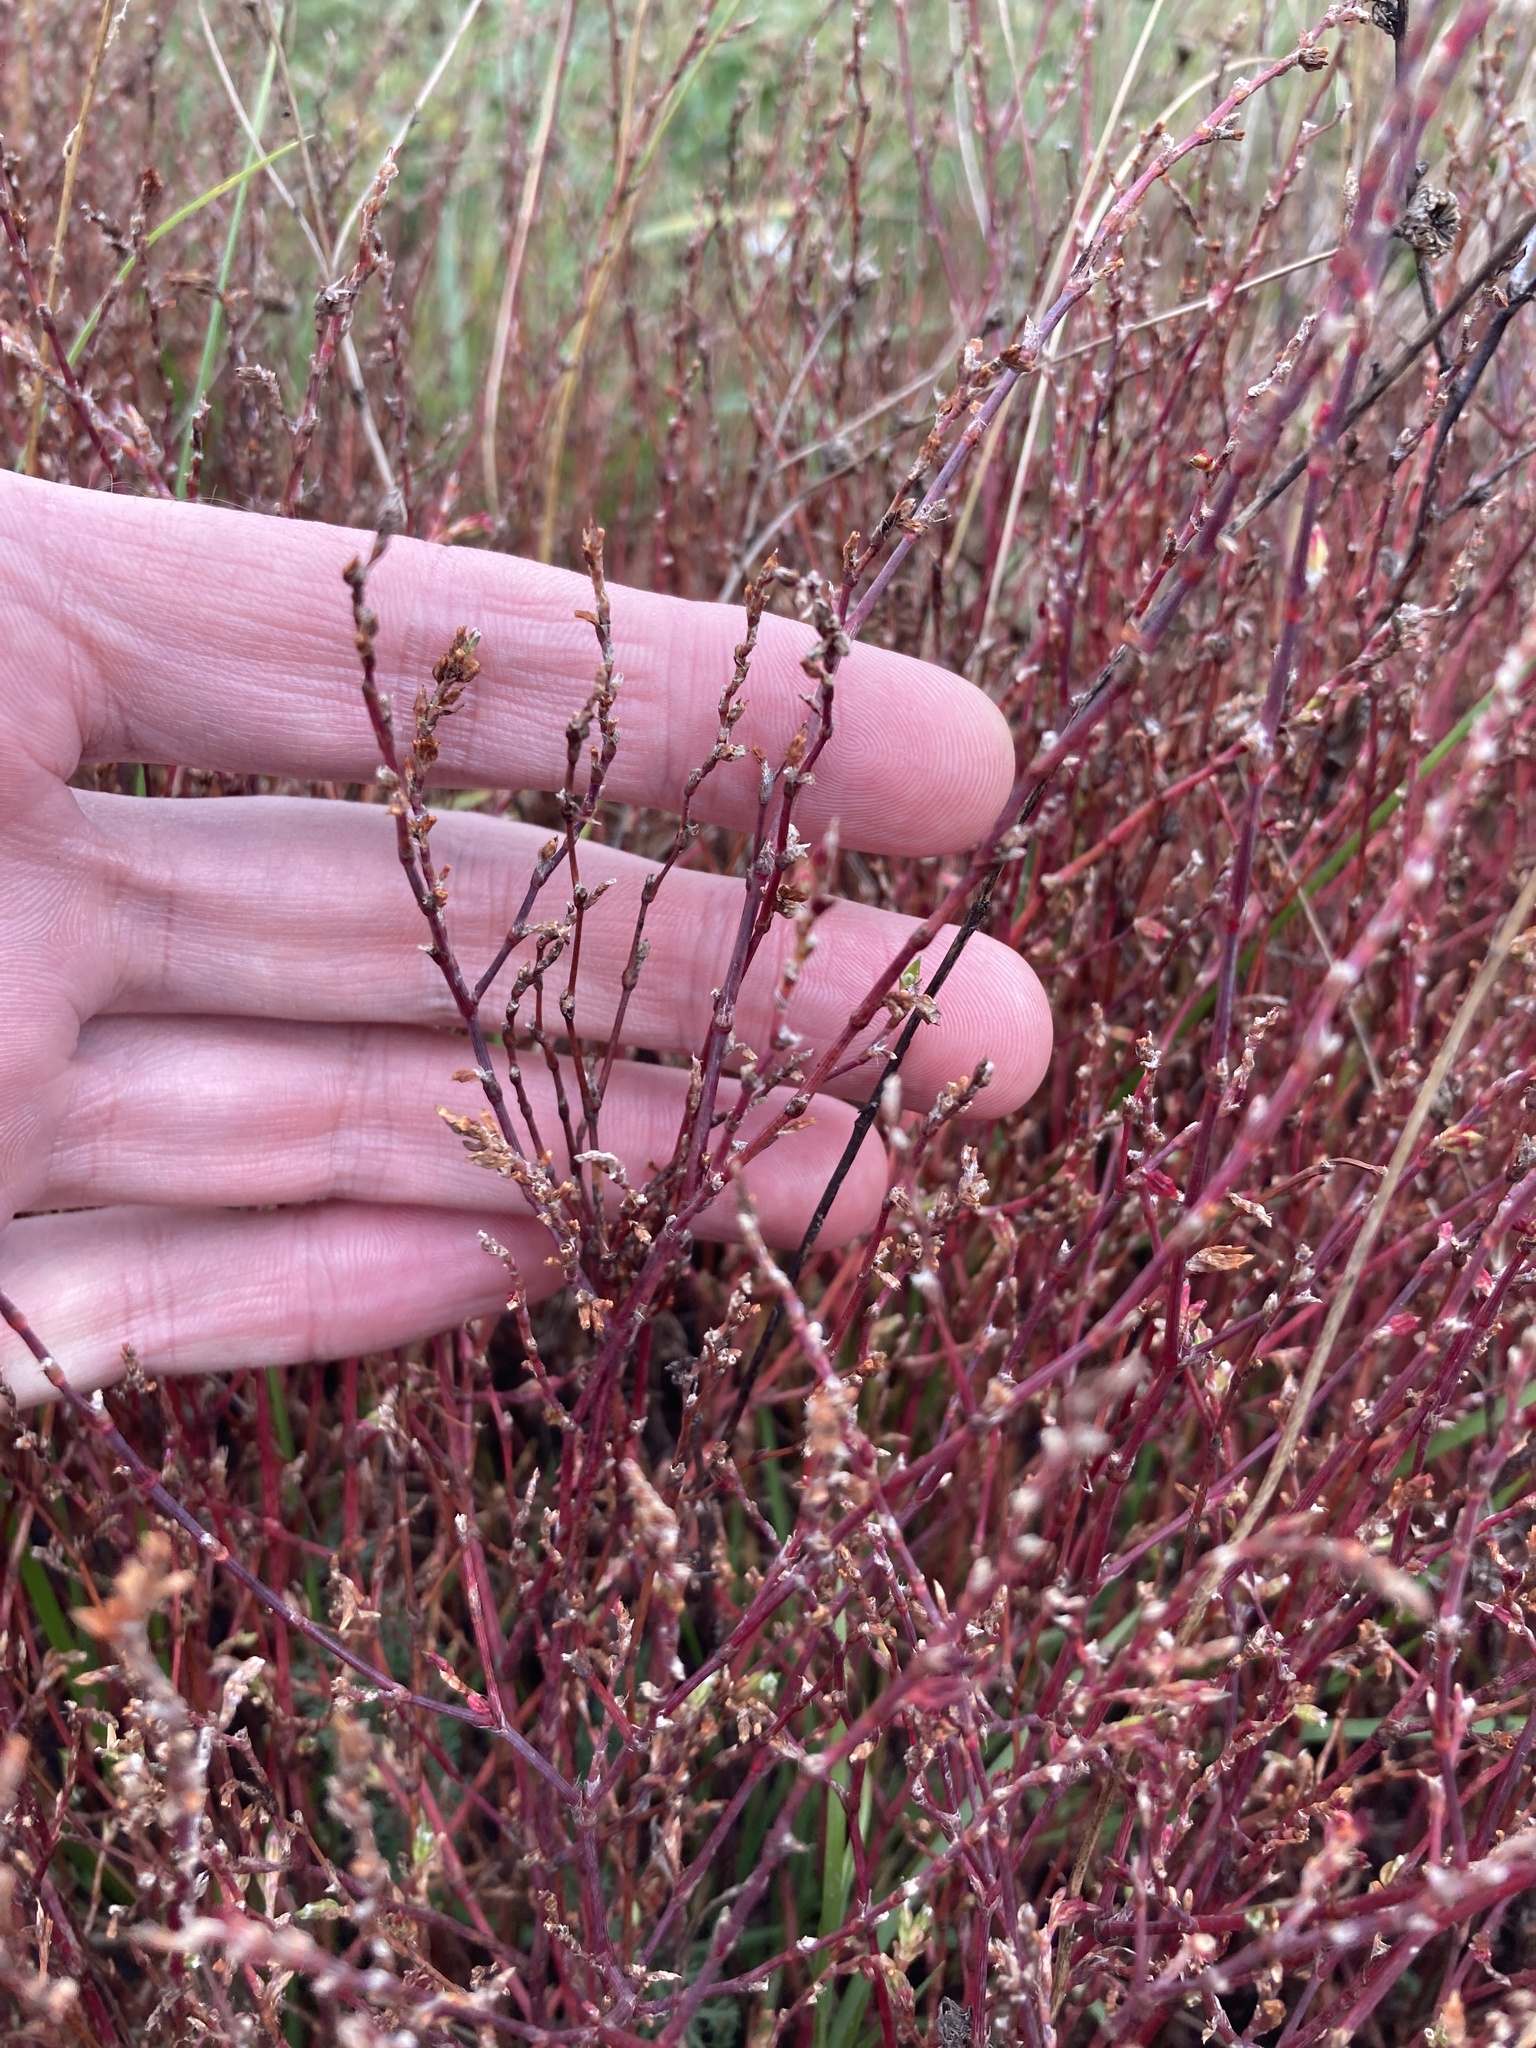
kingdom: Plantae
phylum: Tracheophyta
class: Magnoliopsida
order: Caryophyllales
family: Polygonaceae
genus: Polygonum
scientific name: Polygonum
